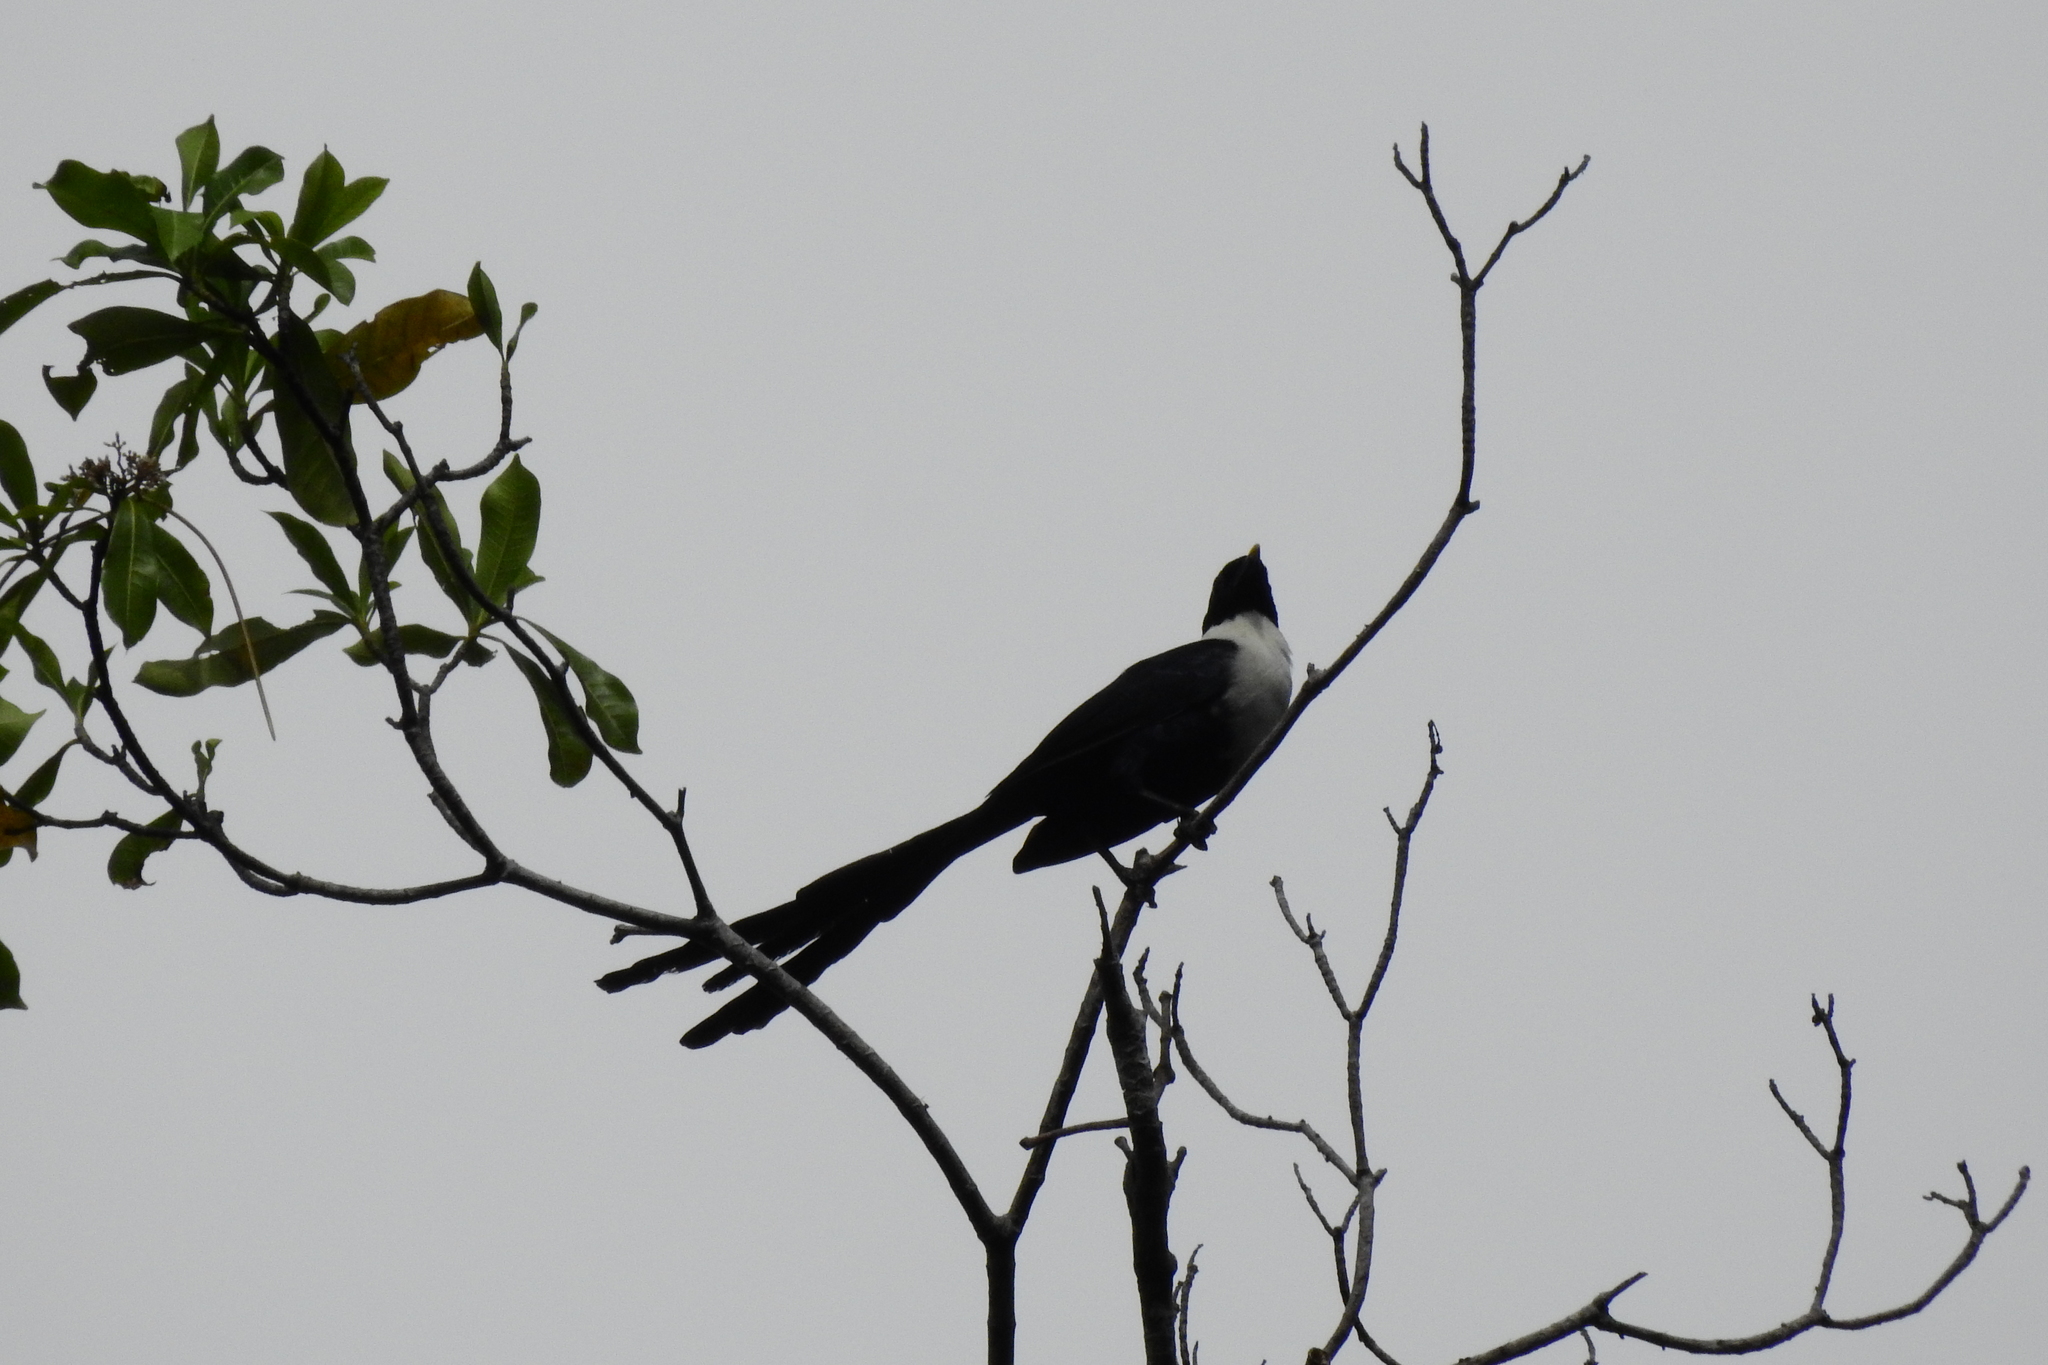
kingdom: Animalia
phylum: Chordata
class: Aves
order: Passeriformes
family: Sturnidae
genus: Streptocitta
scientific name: Streptocitta albicollis
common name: White-necked myna
